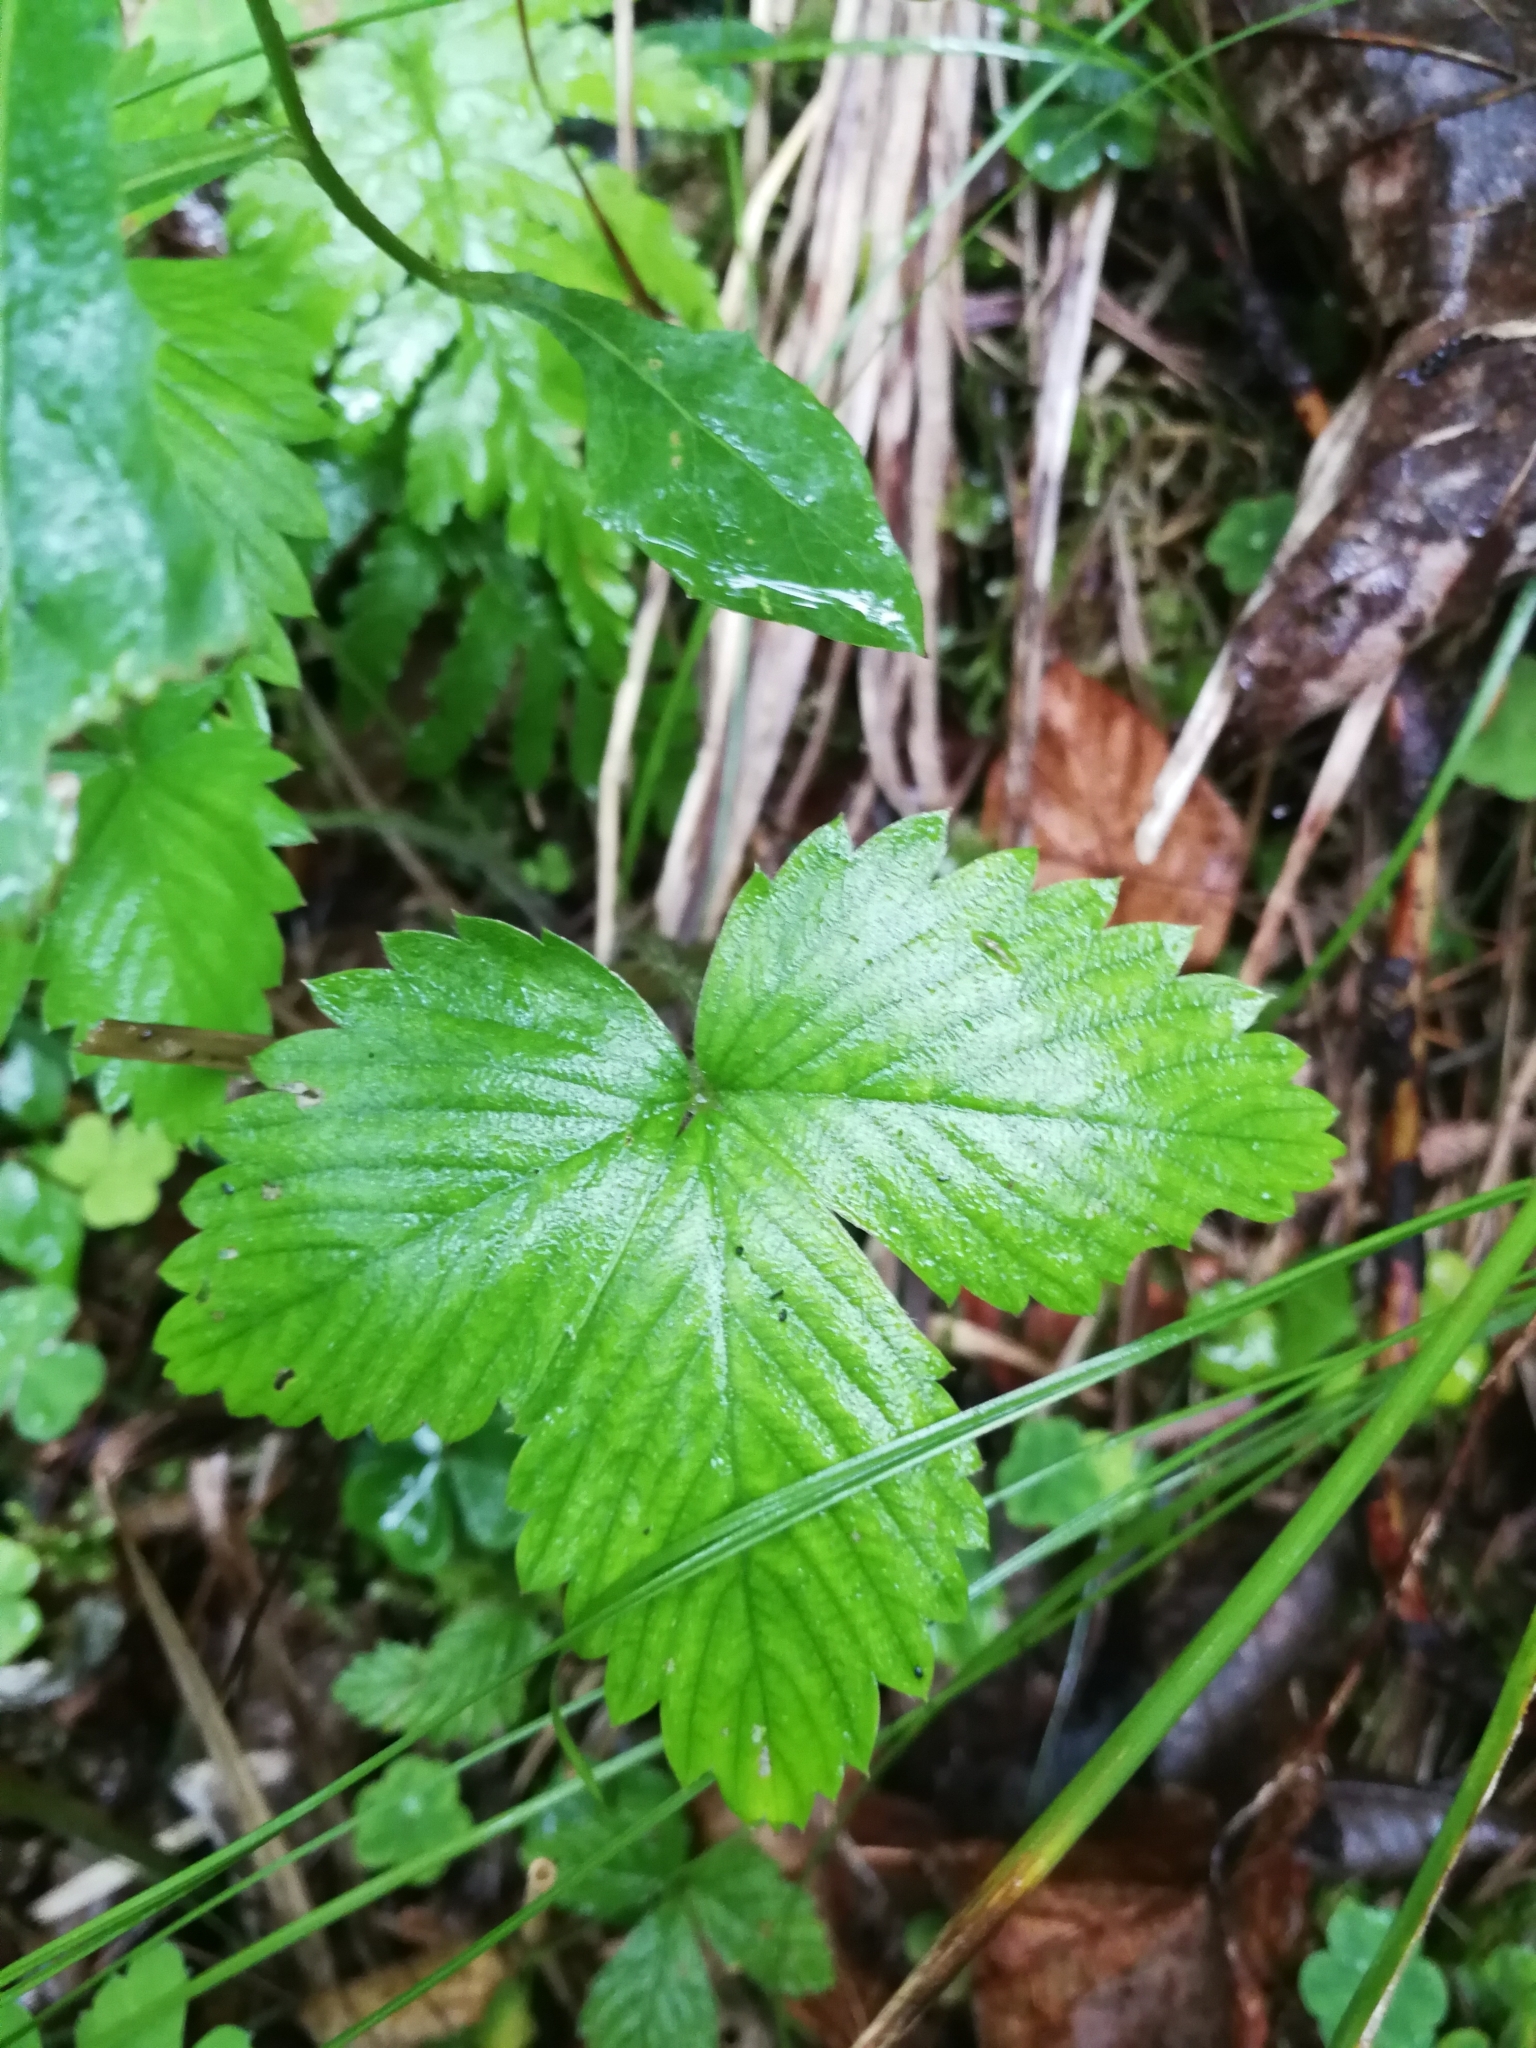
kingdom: Plantae
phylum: Tracheophyta
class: Magnoliopsida
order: Rosales
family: Rosaceae
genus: Fragaria
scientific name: Fragaria vesca
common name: Wild strawberry
